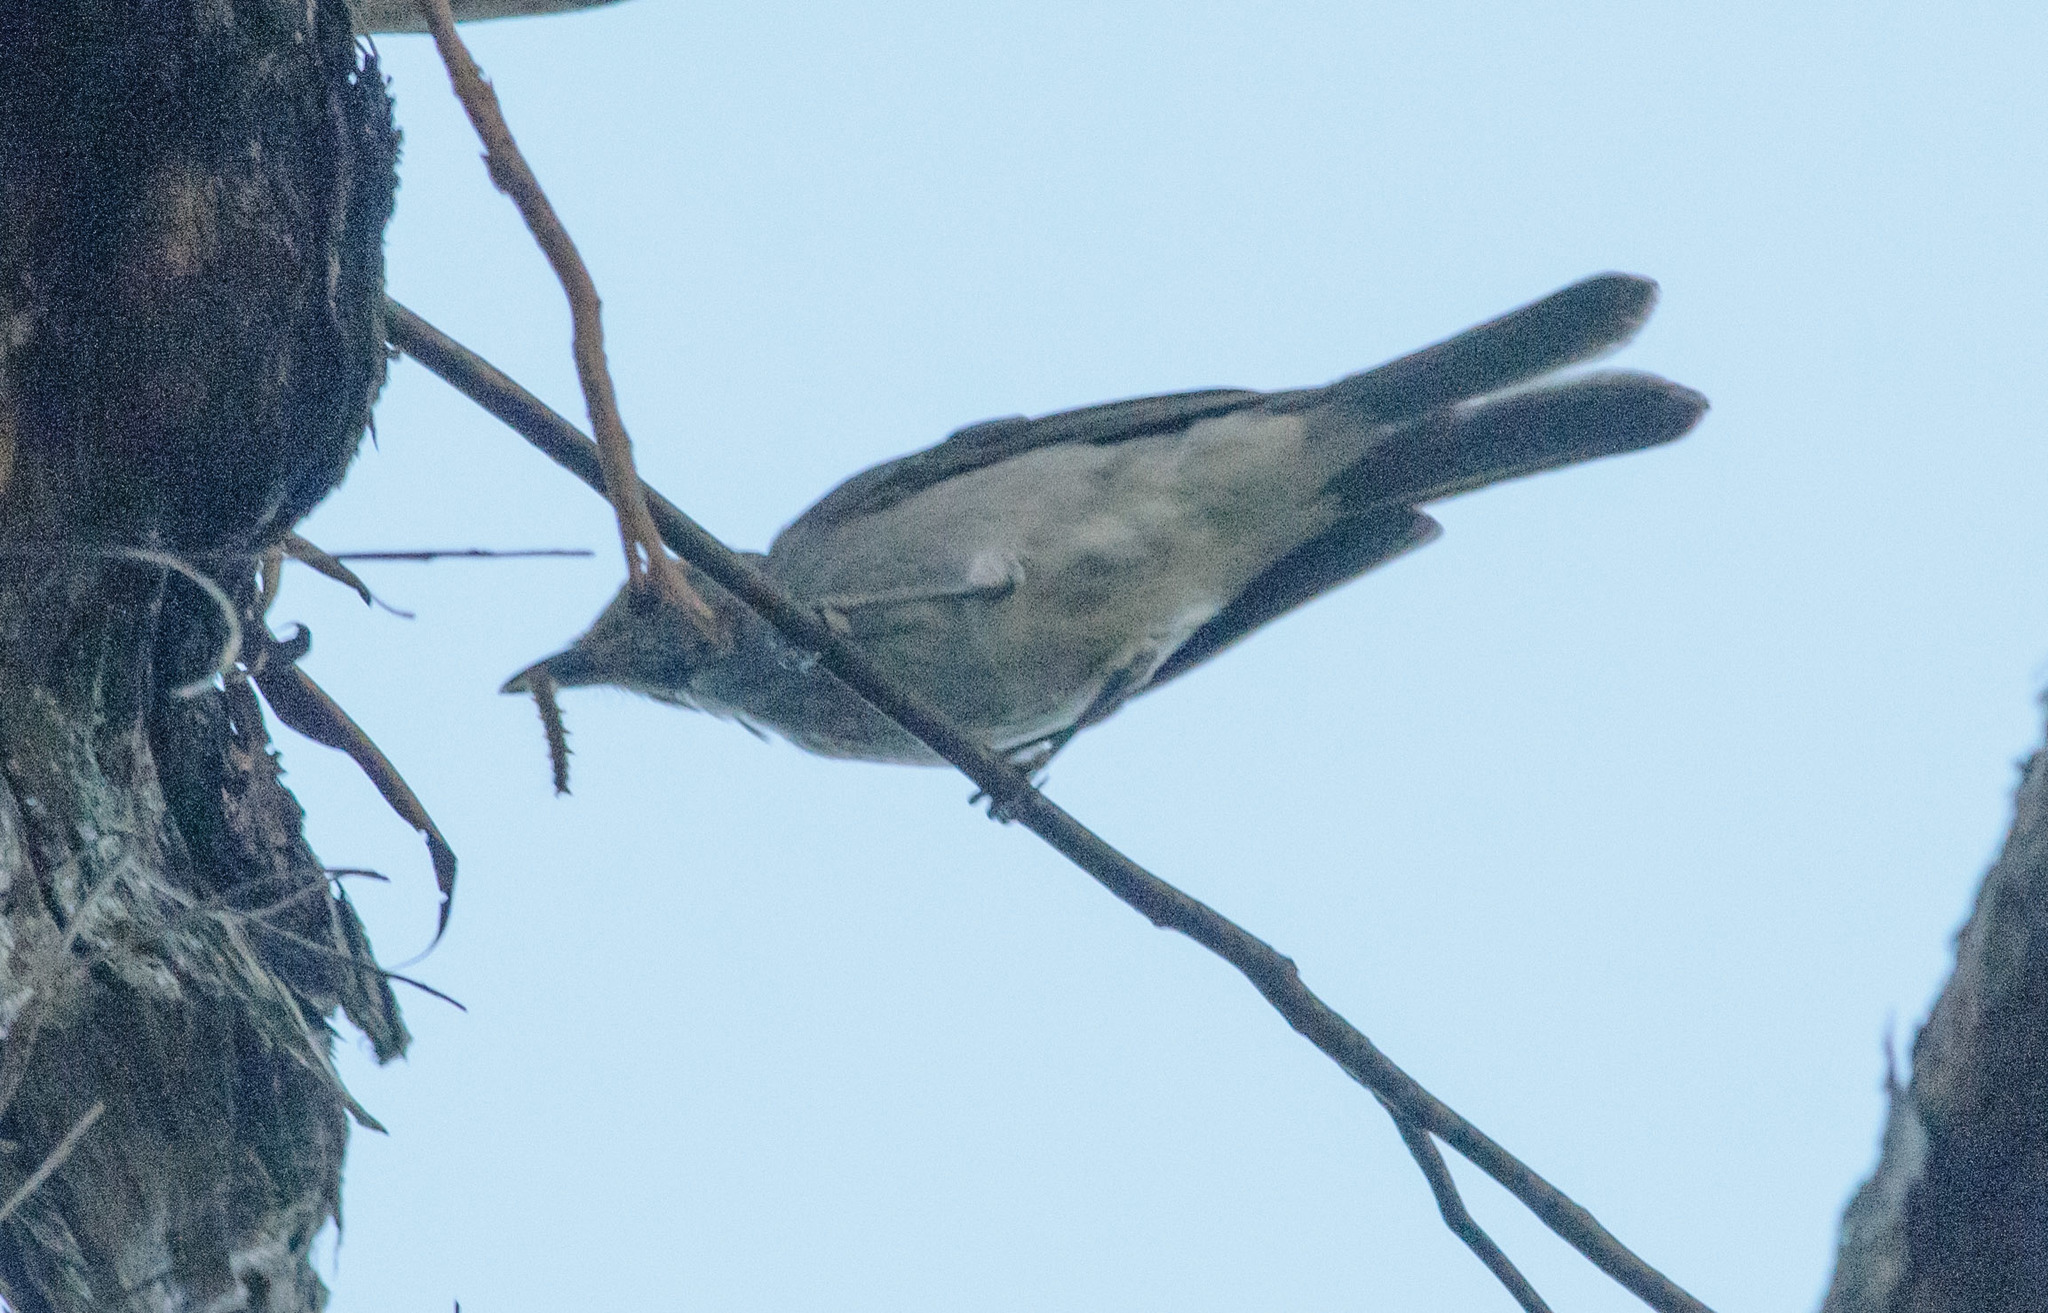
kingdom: Animalia
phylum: Chordata
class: Aves
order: Passeriformes
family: Pachycephalidae
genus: Colluricincla
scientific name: Colluricincla harmonica
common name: Grey shrikethrush
